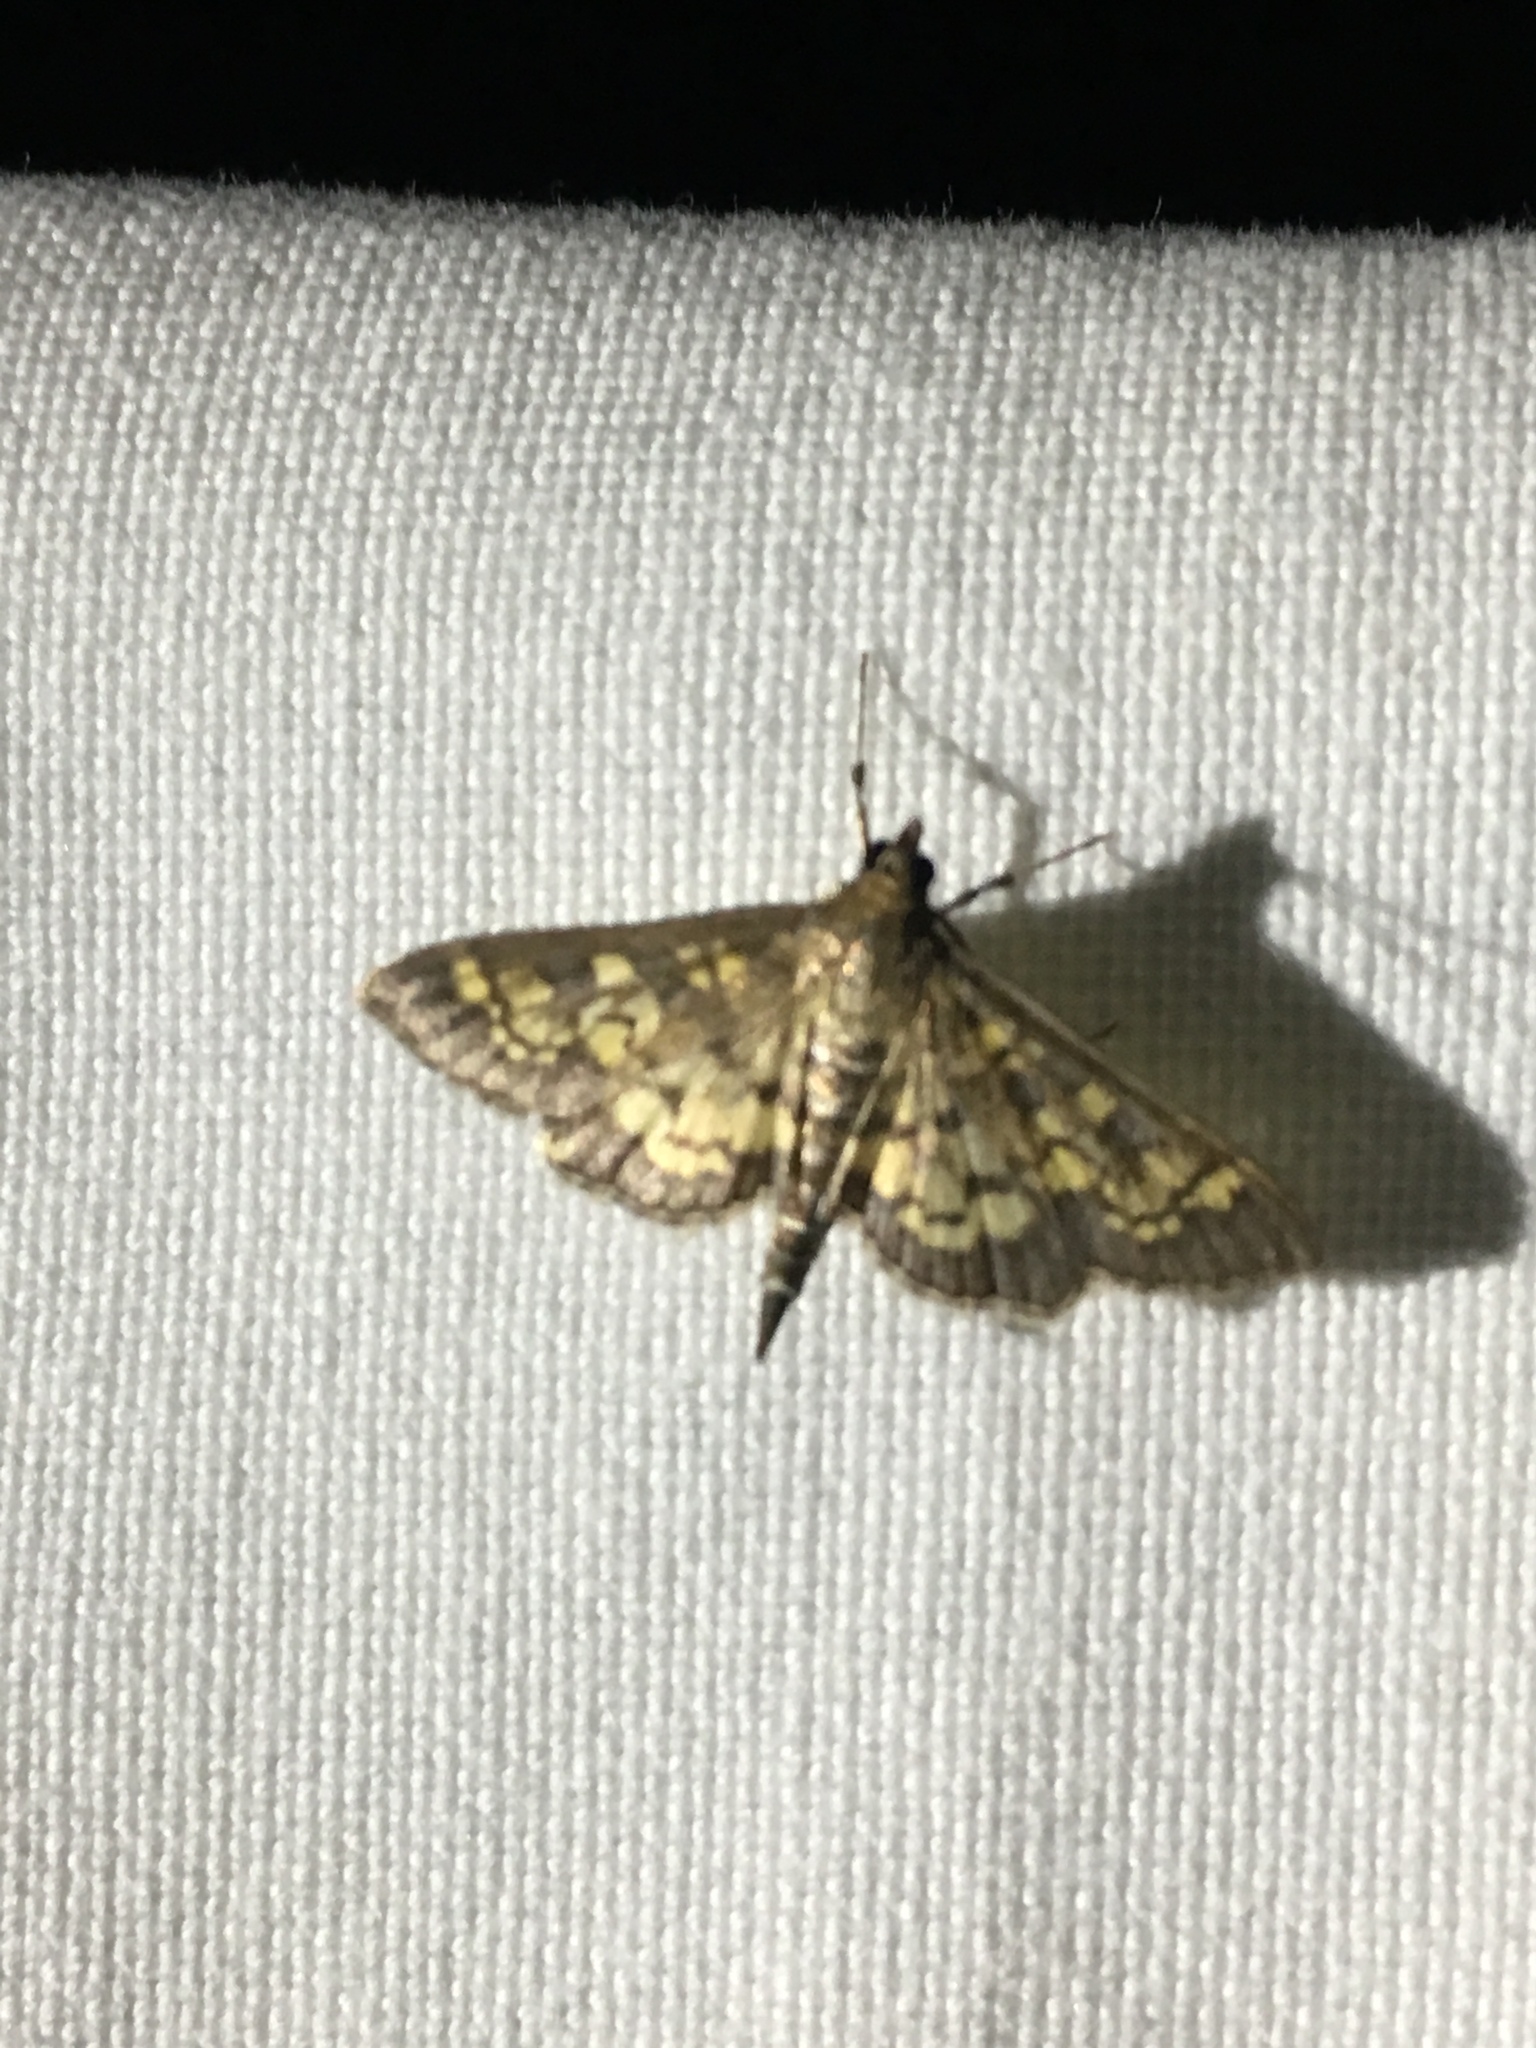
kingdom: Animalia
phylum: Arthropoda
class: Insecta
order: Lepidoptera
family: Crambidae
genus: Epipagis
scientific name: Epipagis adipaloides
